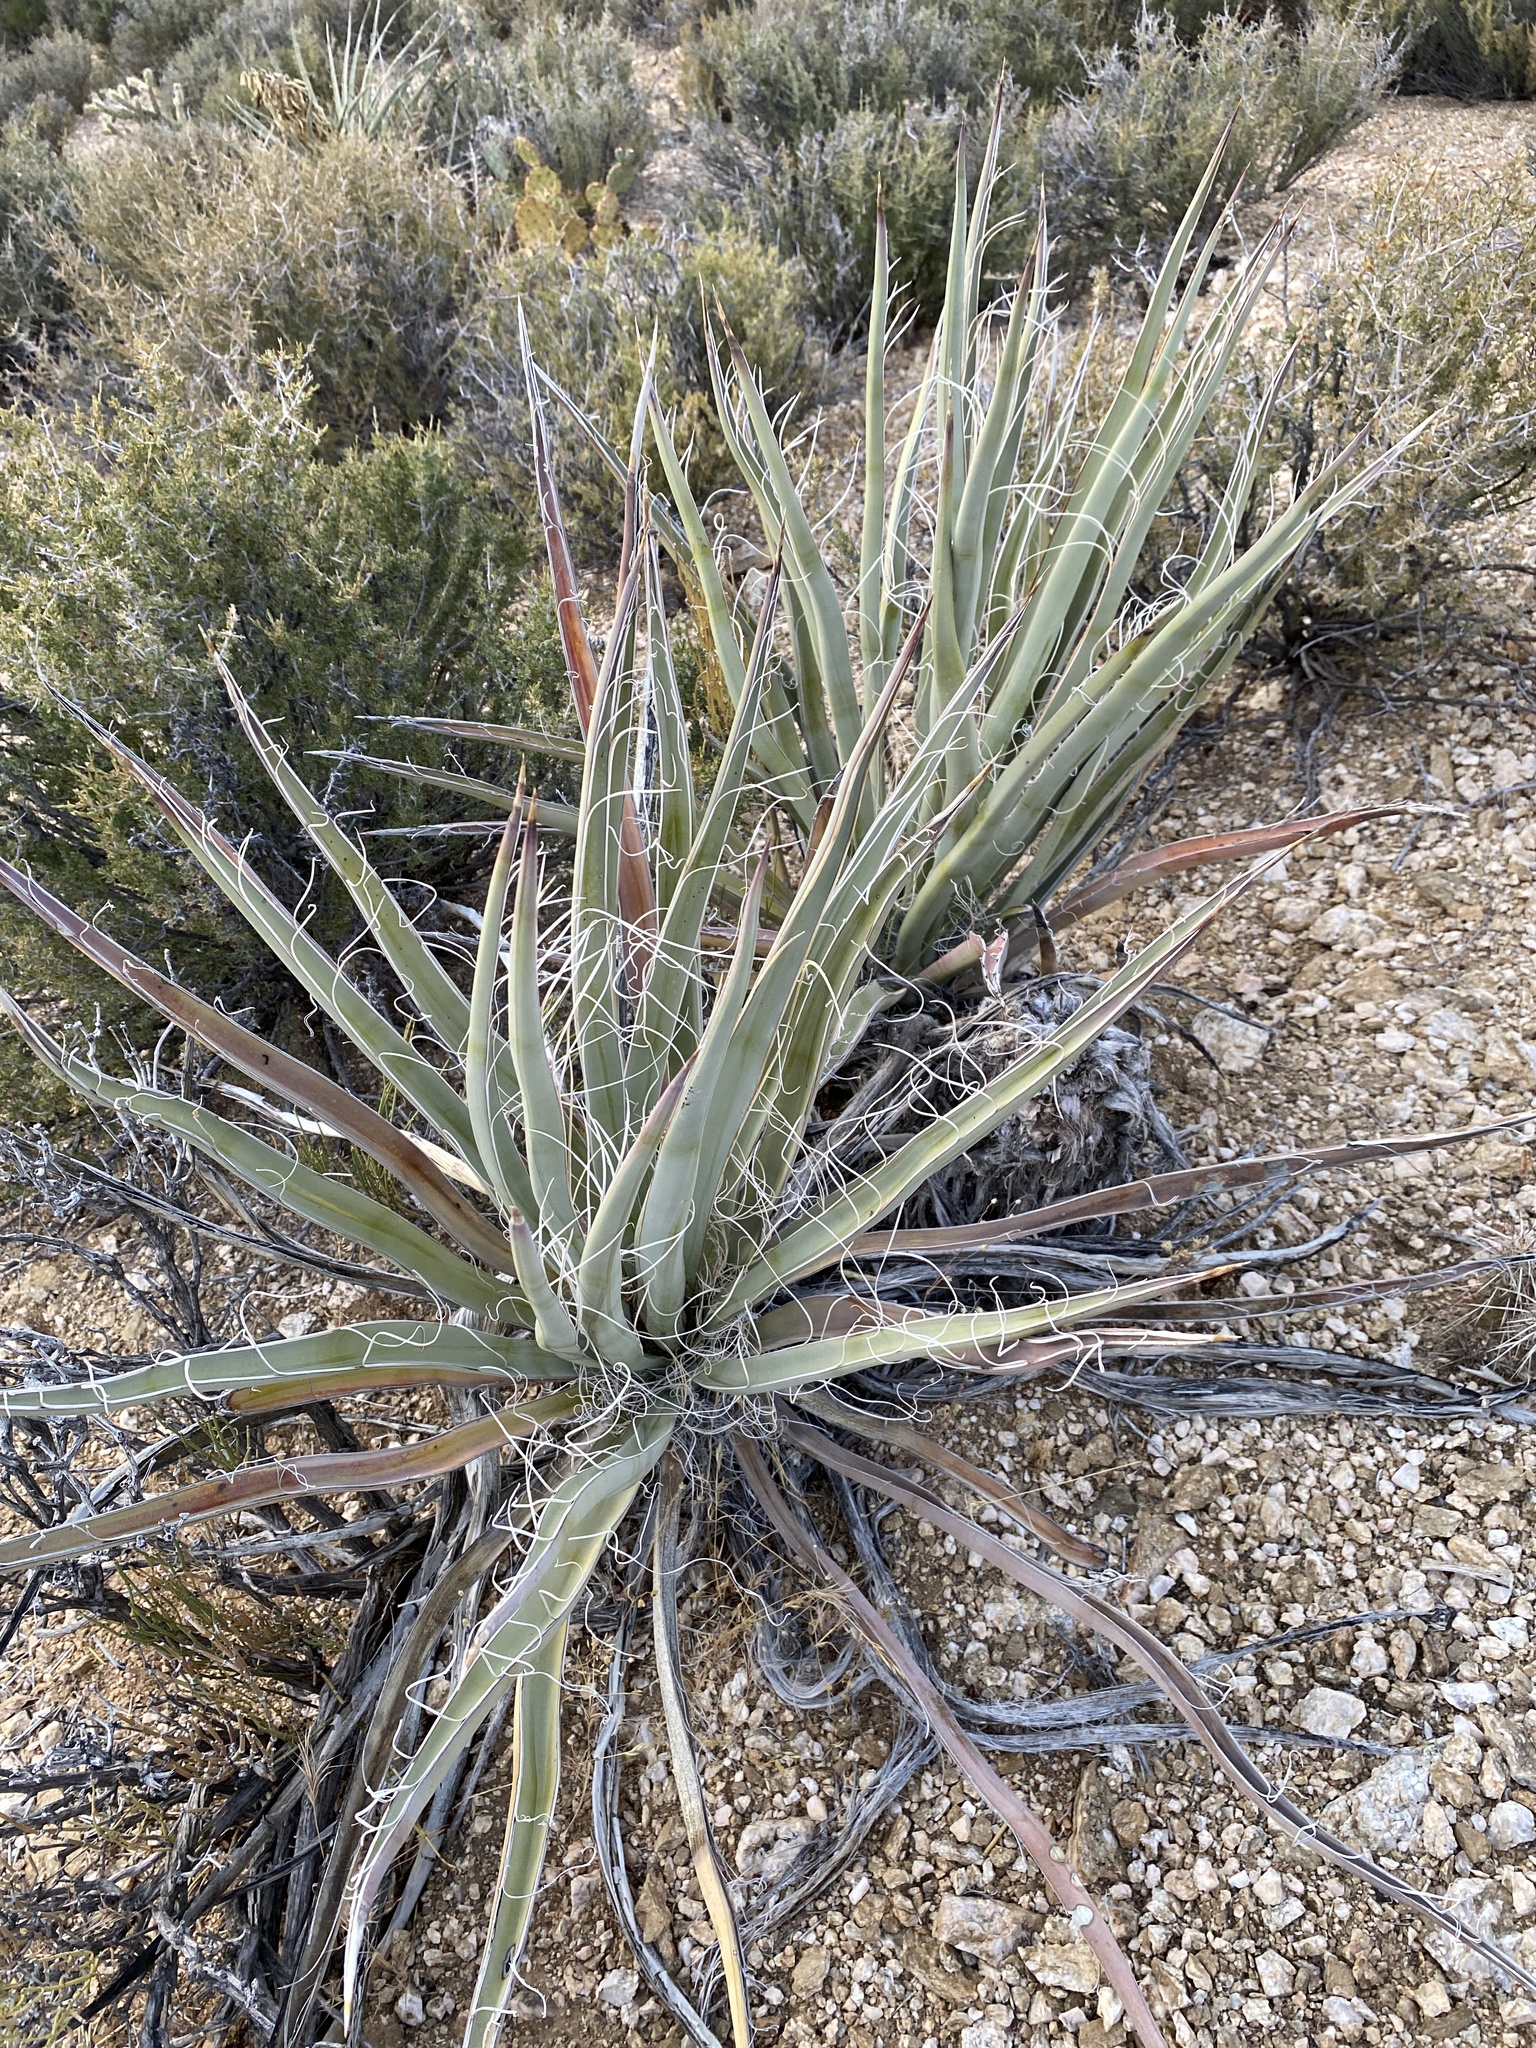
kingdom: Plantae
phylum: Tracheophyta
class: Liliopsida
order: Asparagales
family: Asparagaceae
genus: Yucca
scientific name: Yucca baccata
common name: Banana yucca
